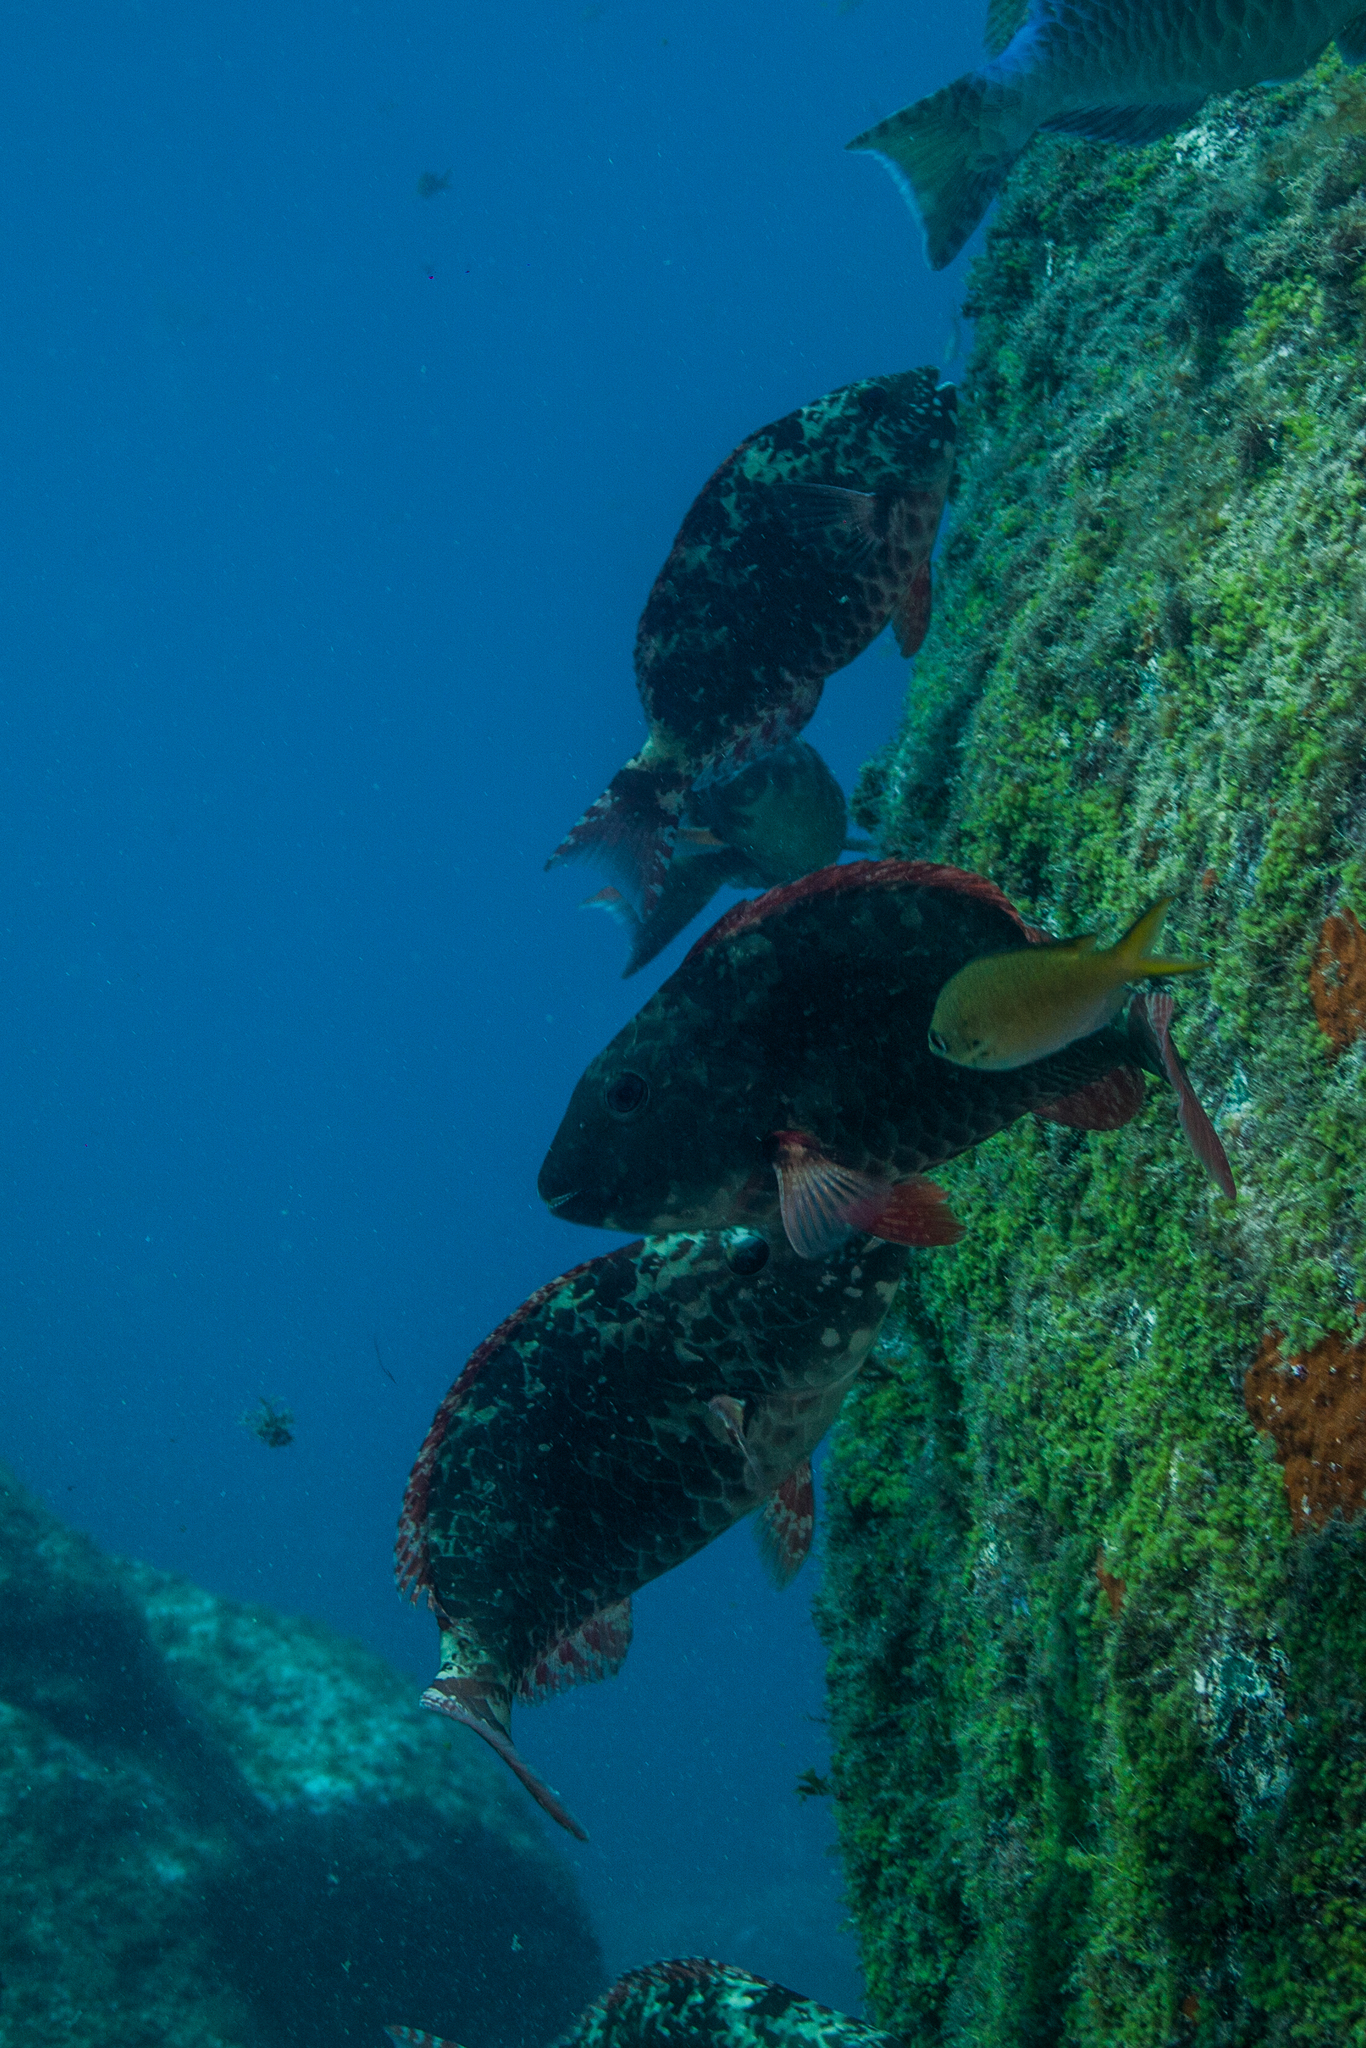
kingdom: Animalia
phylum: Chordata
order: Perciformes
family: Scaridae
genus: Sparisoma
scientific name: Sparisoma frondosum
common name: Agassiz's parrotfish
